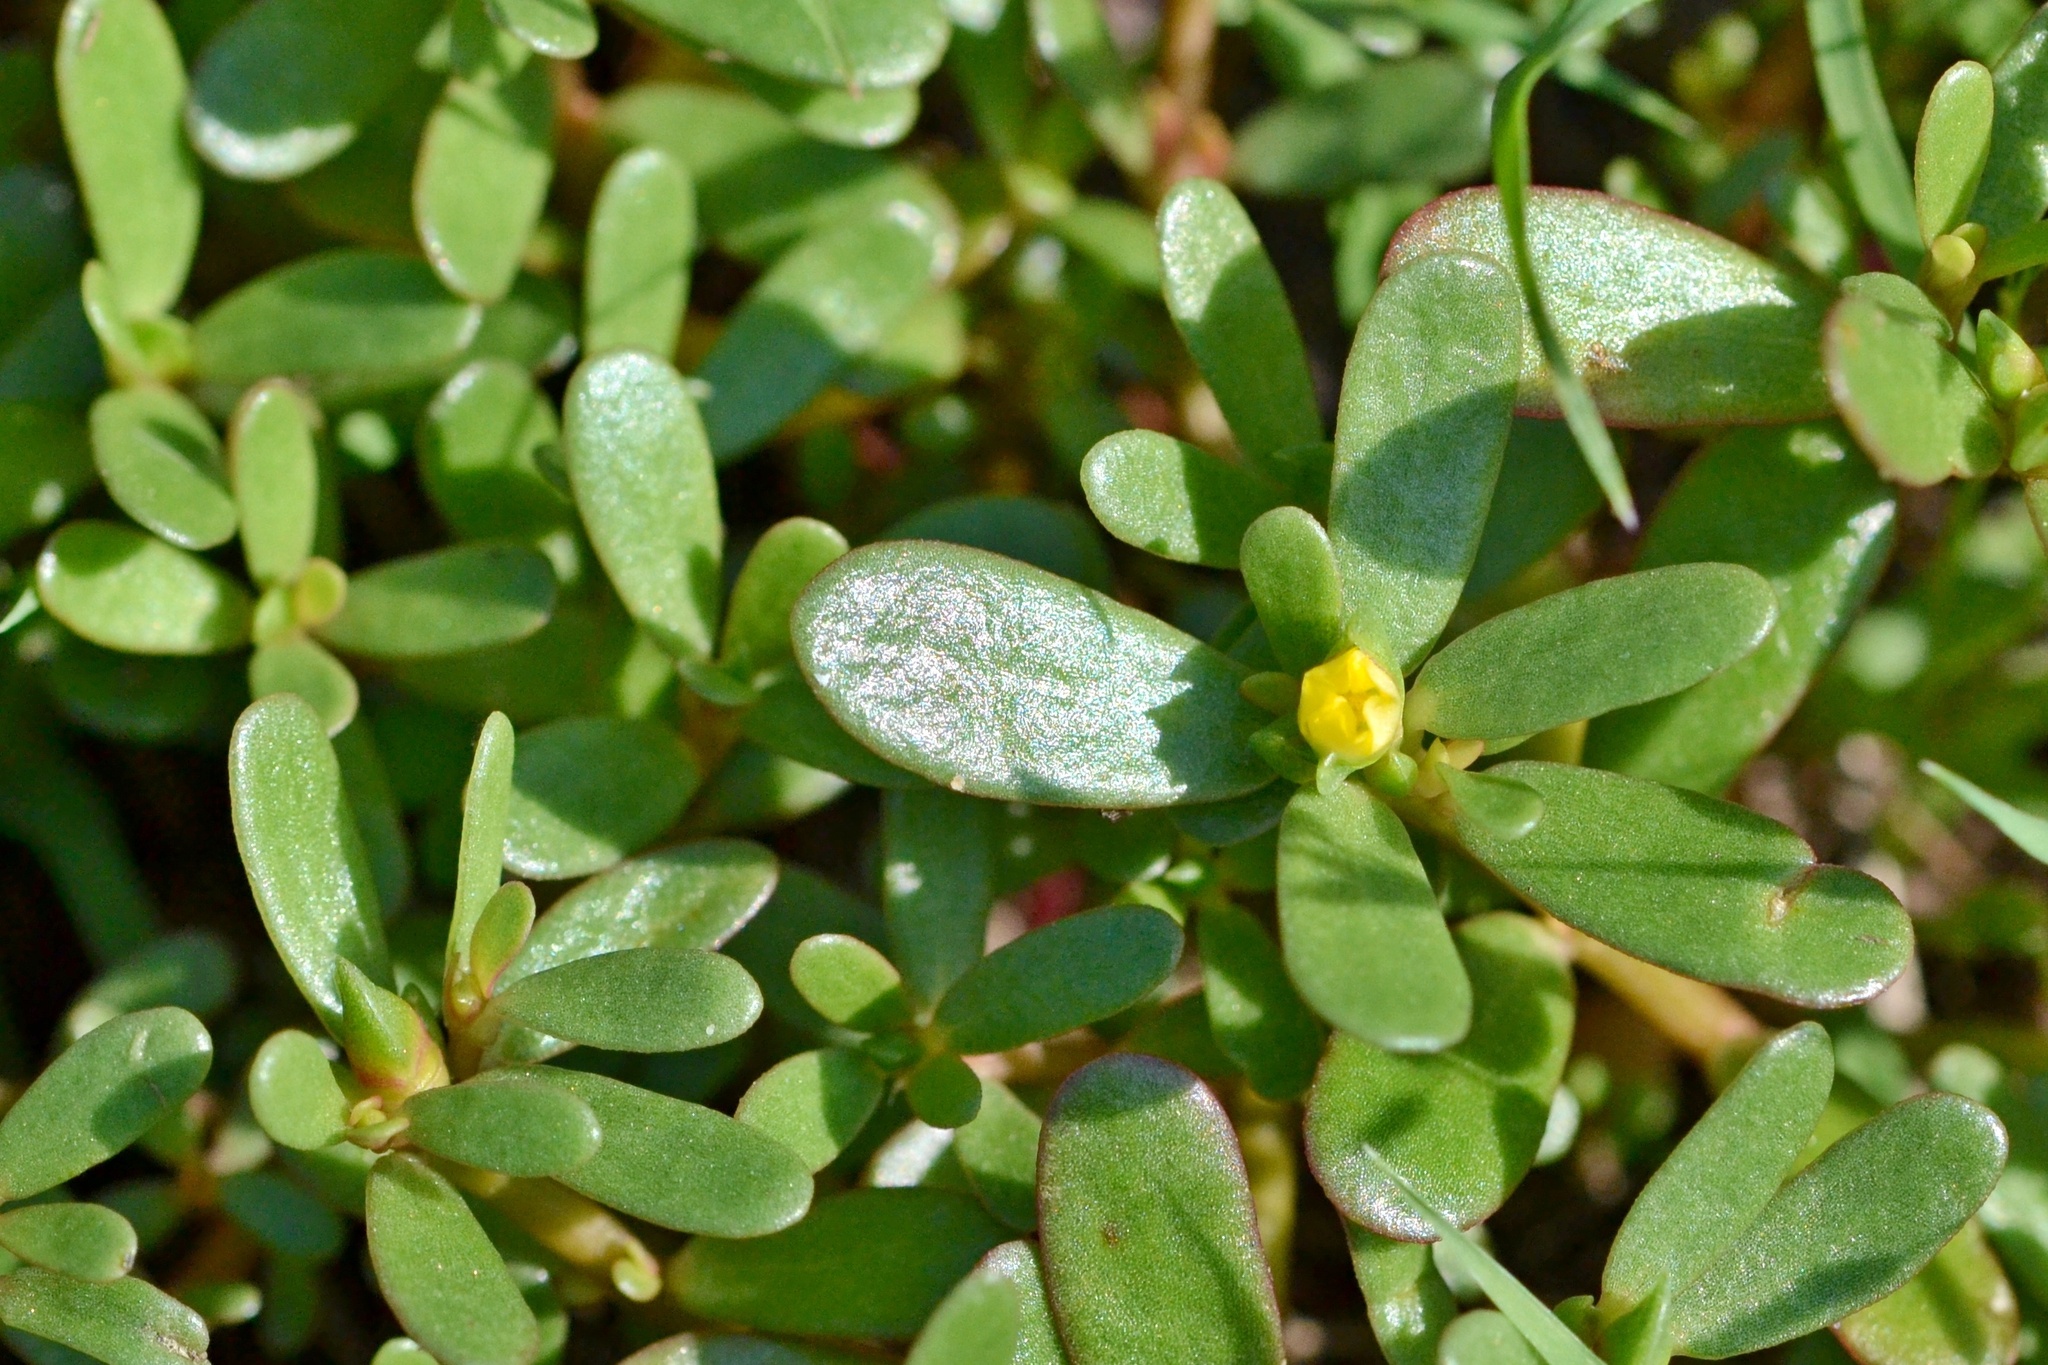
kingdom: Plantae
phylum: Tracheophyta
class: Magnoliopsida
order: Caryophyllales
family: Portulacaceae
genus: Portulaca
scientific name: Portulaca oleracea
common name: Common purslane
